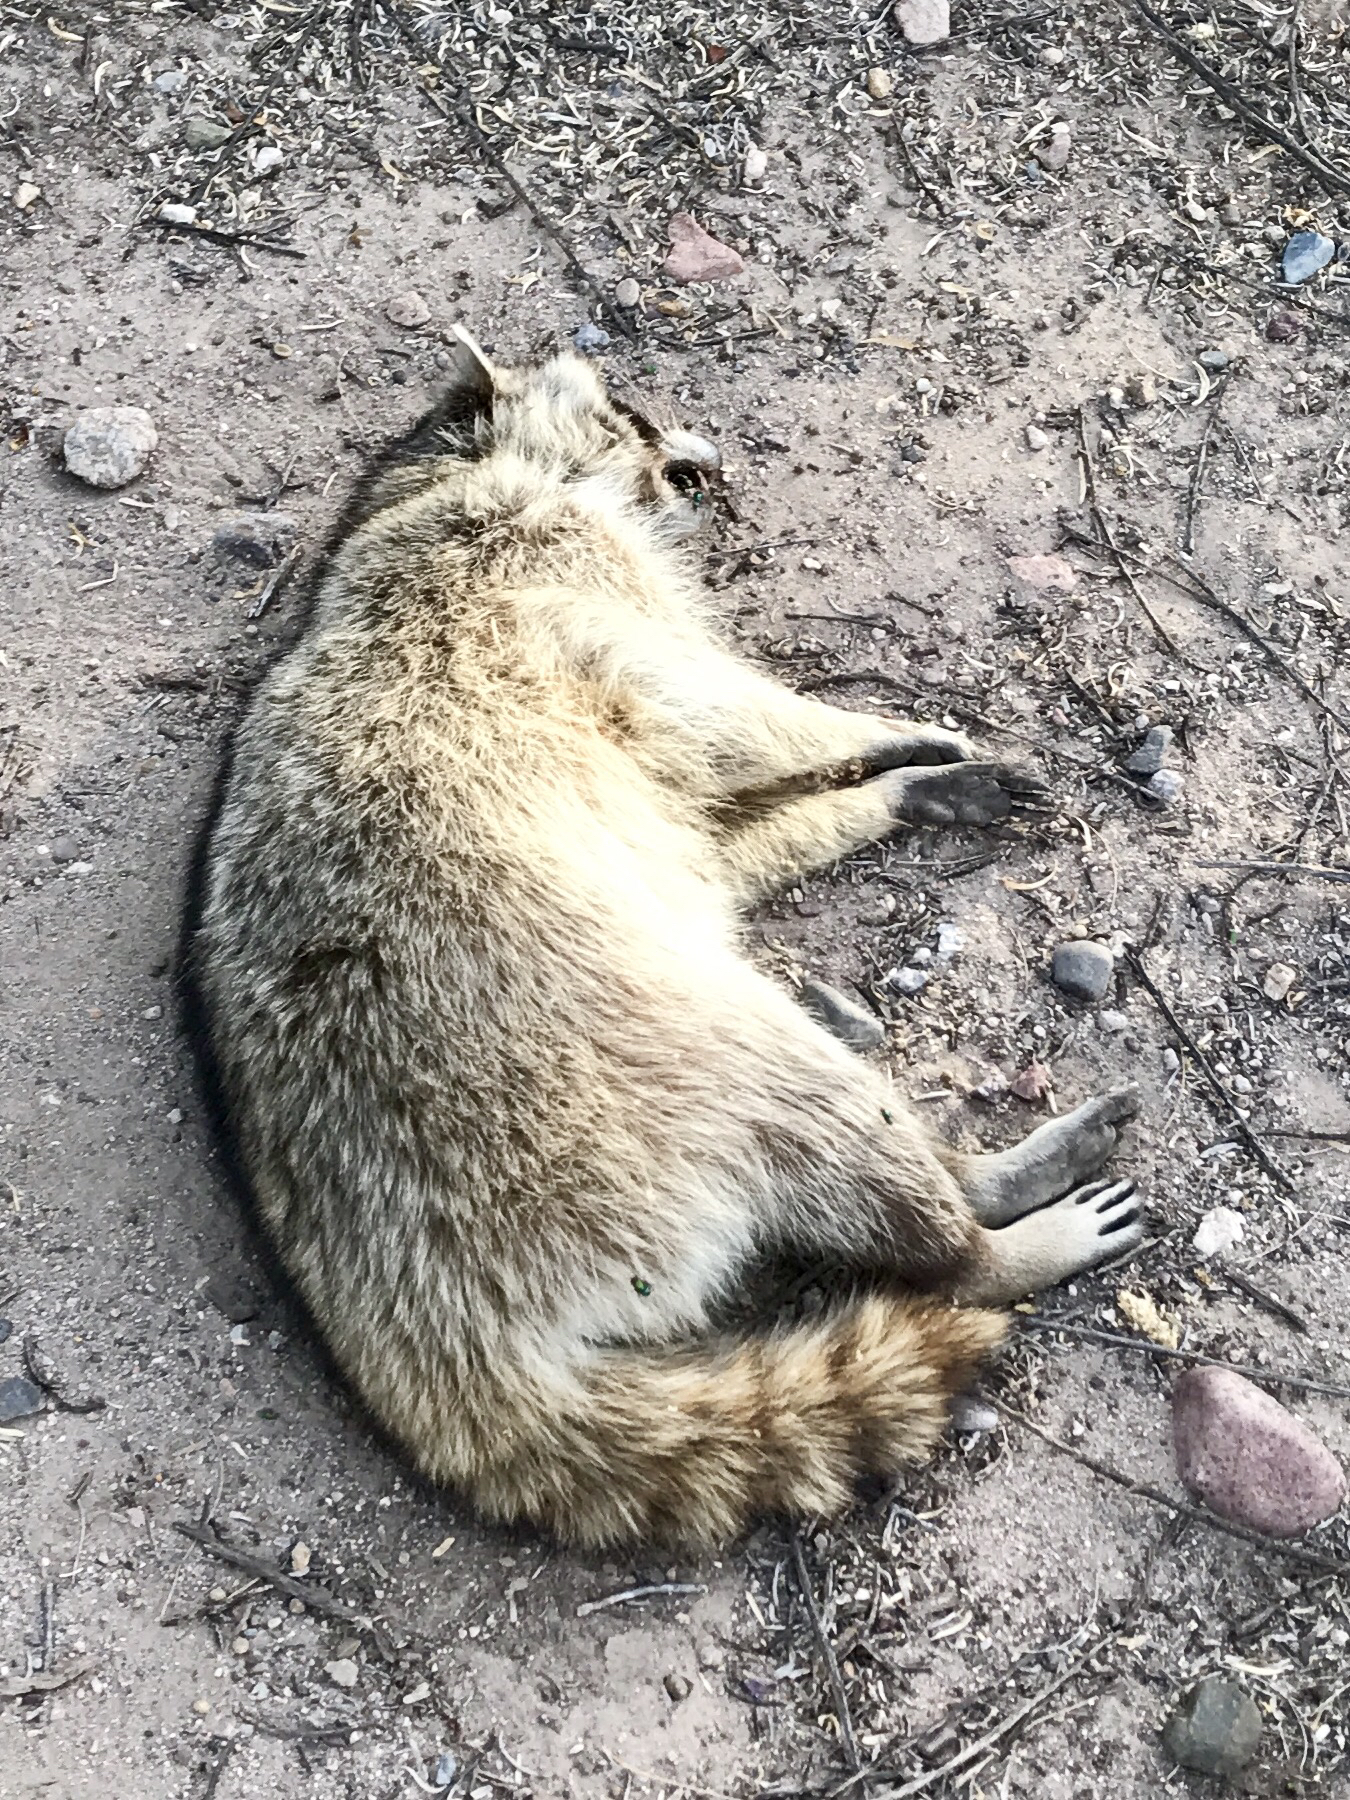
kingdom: Animalia
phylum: Chordata
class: Mammalia
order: Carnivora
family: Procyonidae
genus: Procyon
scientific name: Procyon lotor
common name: Raccoon
